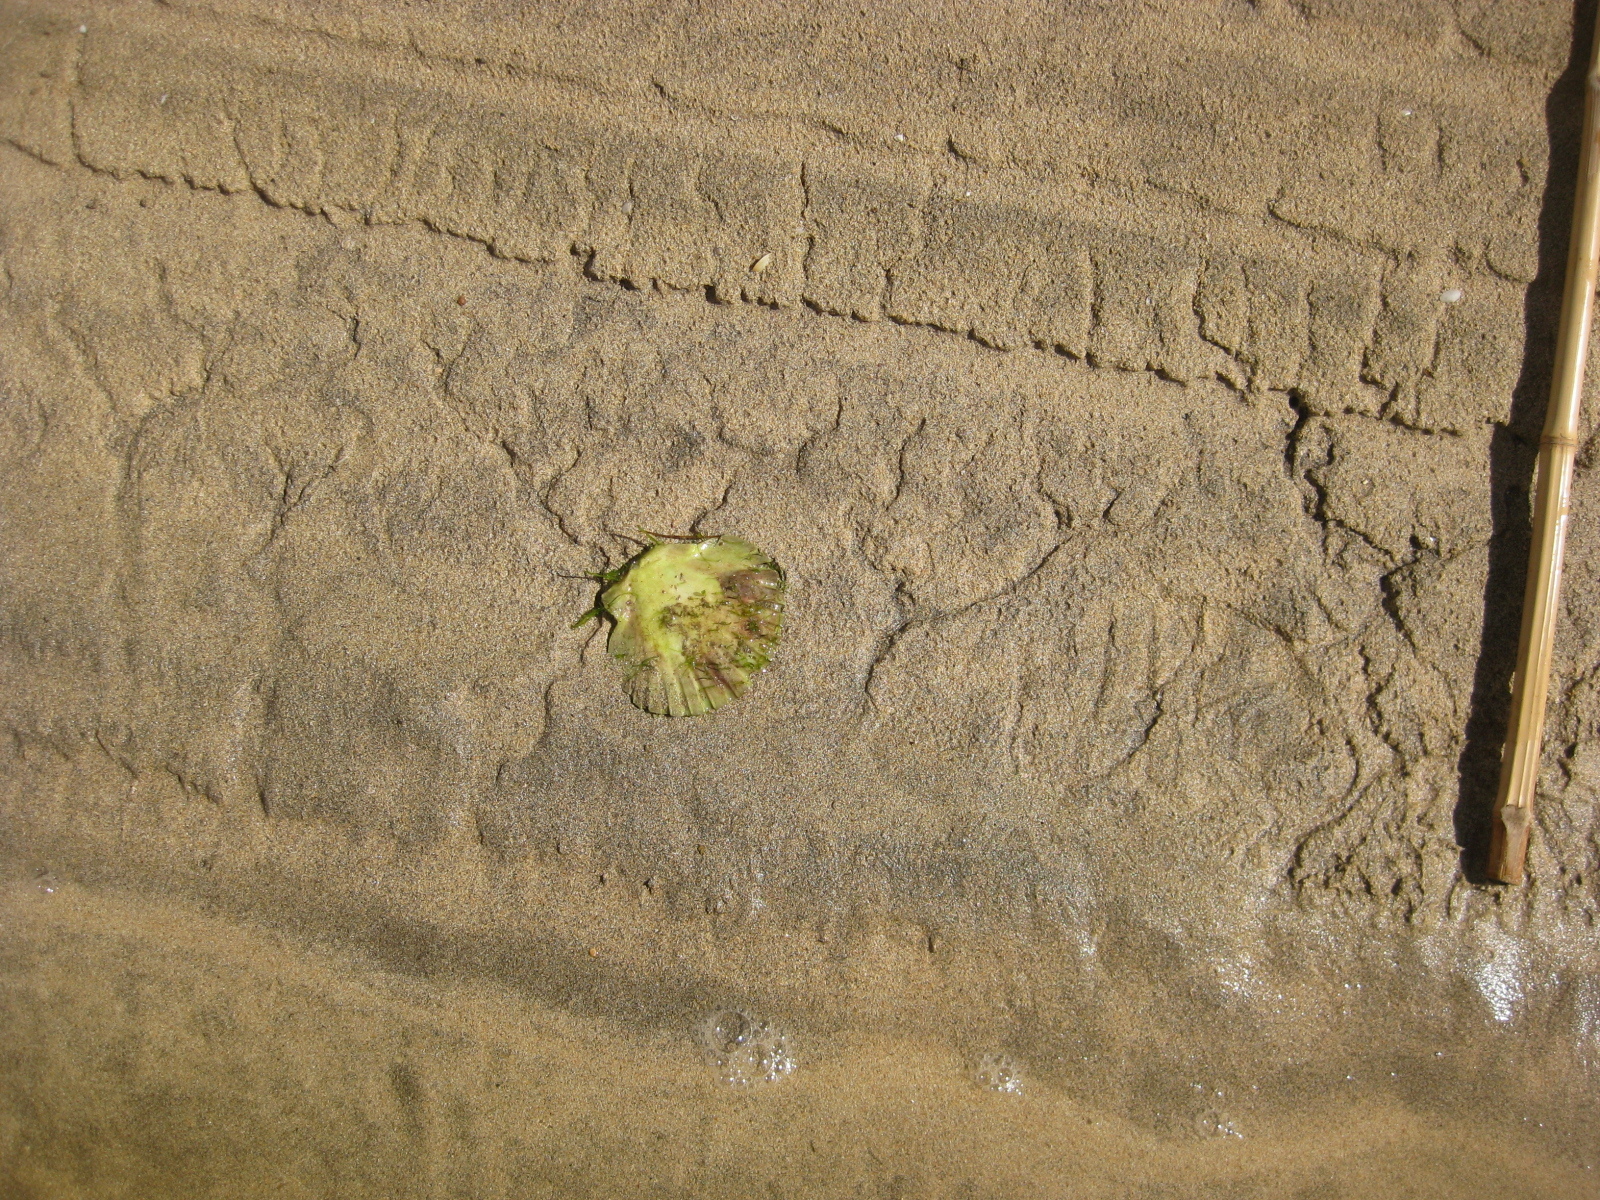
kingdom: Animalia
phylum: Mollusca
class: Bivalvia
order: Pectinida
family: Pectinidae
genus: Pecten
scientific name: Pecten novaezelandiae
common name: New zealand scallop
